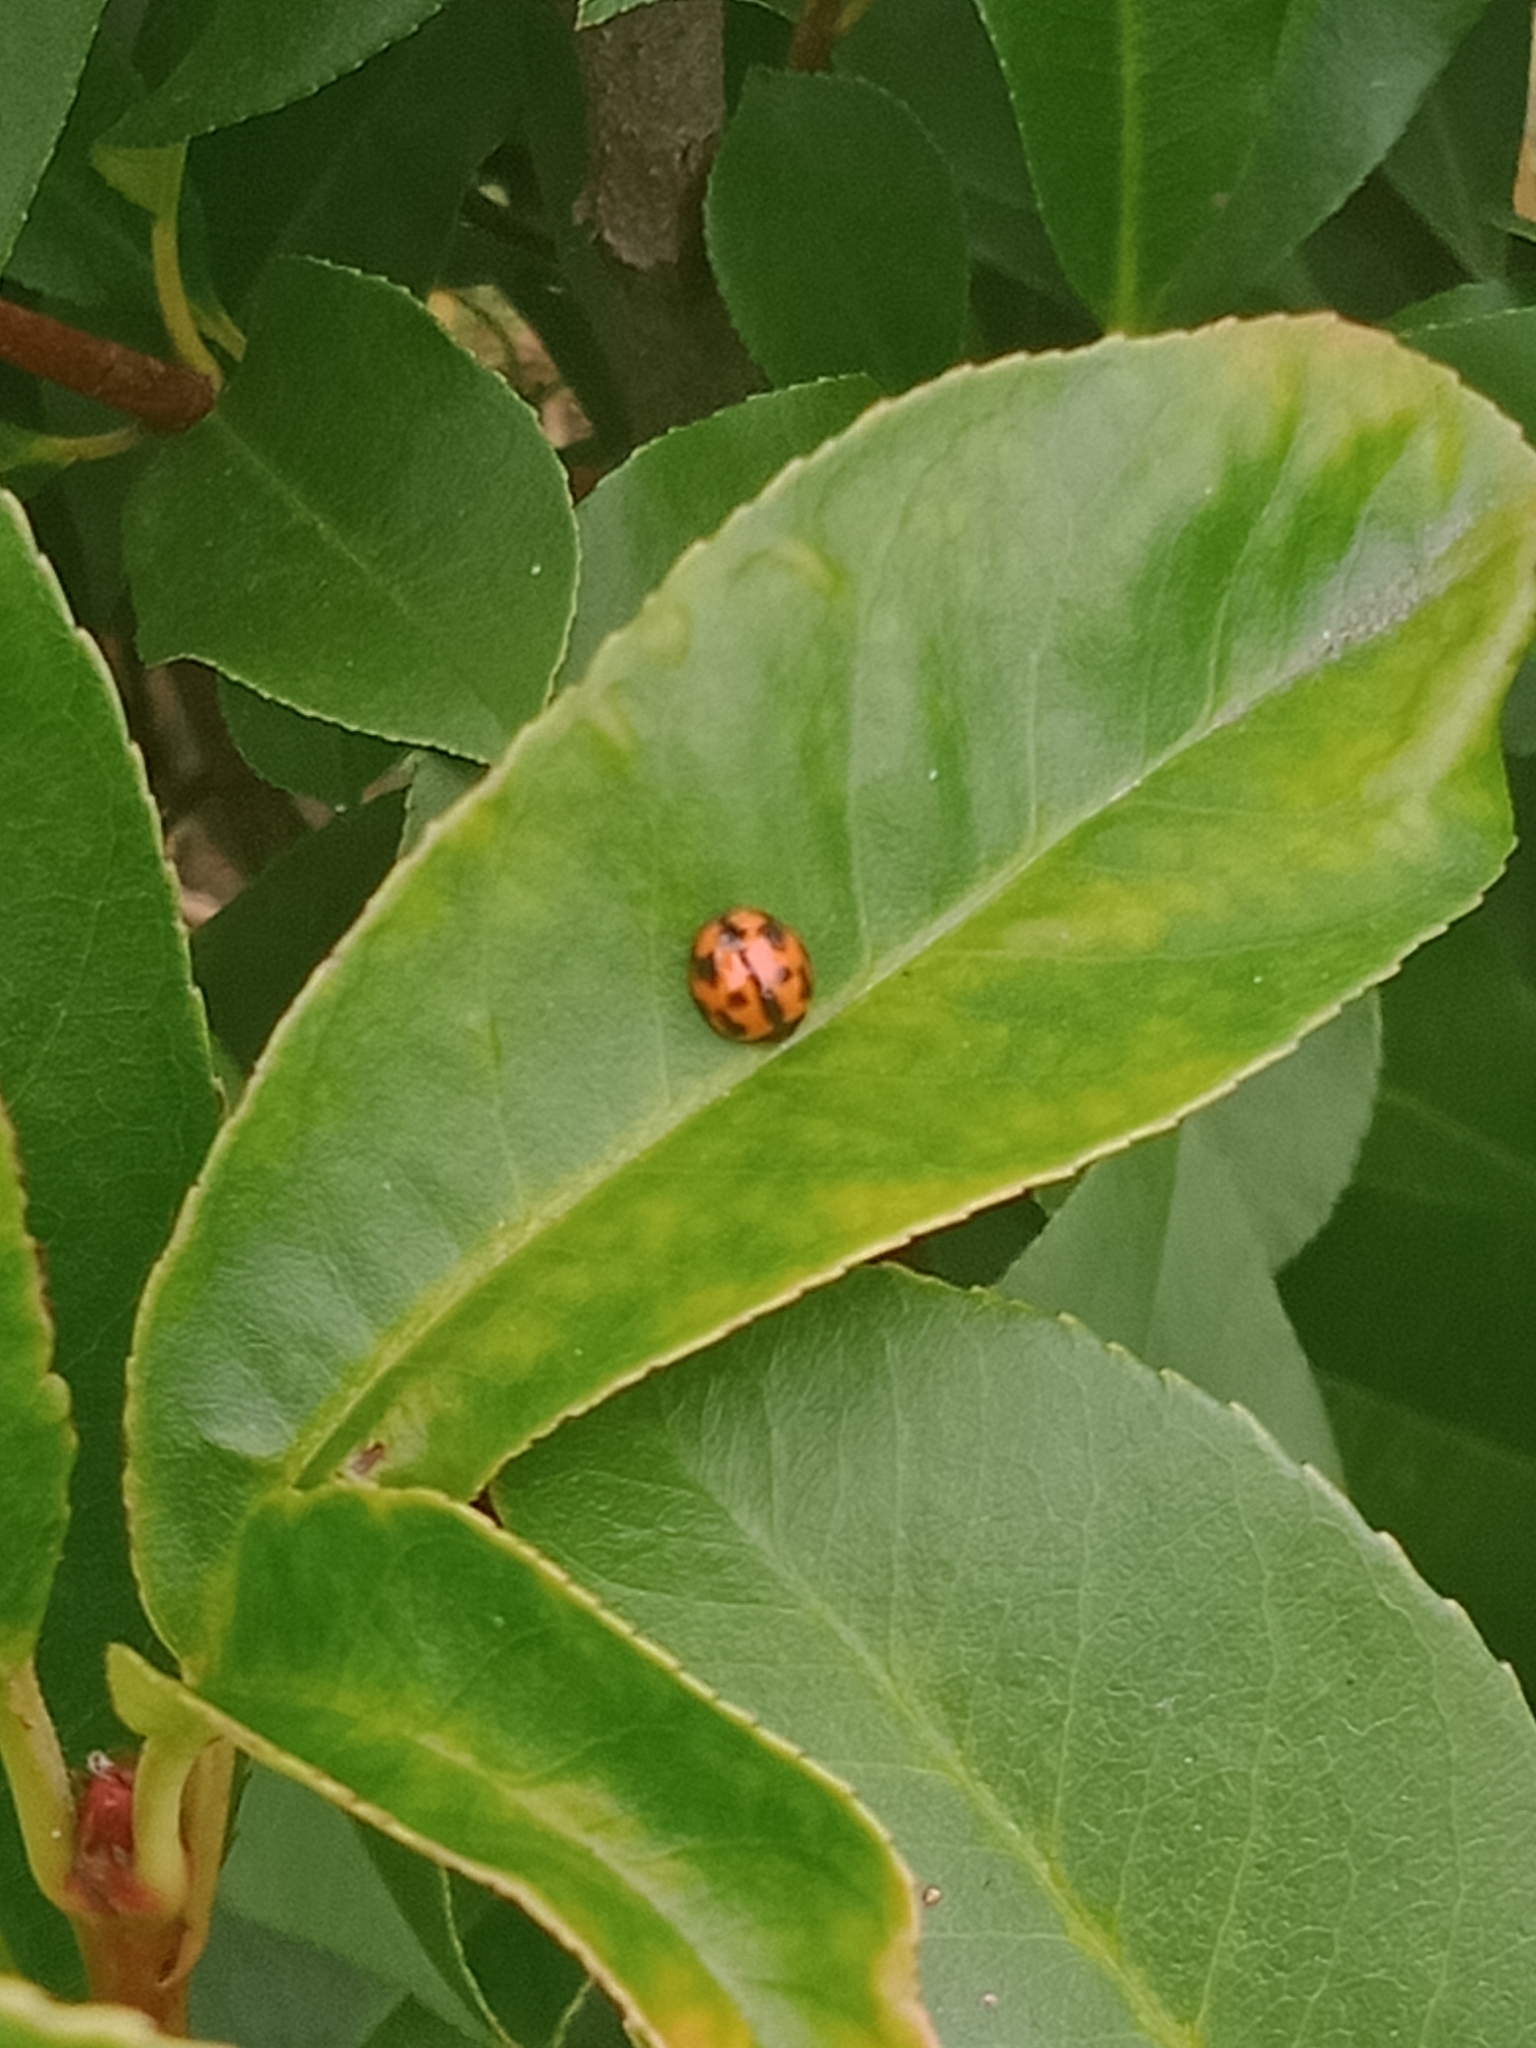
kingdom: Animalia
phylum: Arthropoda
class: Insecta
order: Coleoptera
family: Coccinellidae
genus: Coelophora
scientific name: Coelophora inaequalis
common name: Common australian lady beetle
